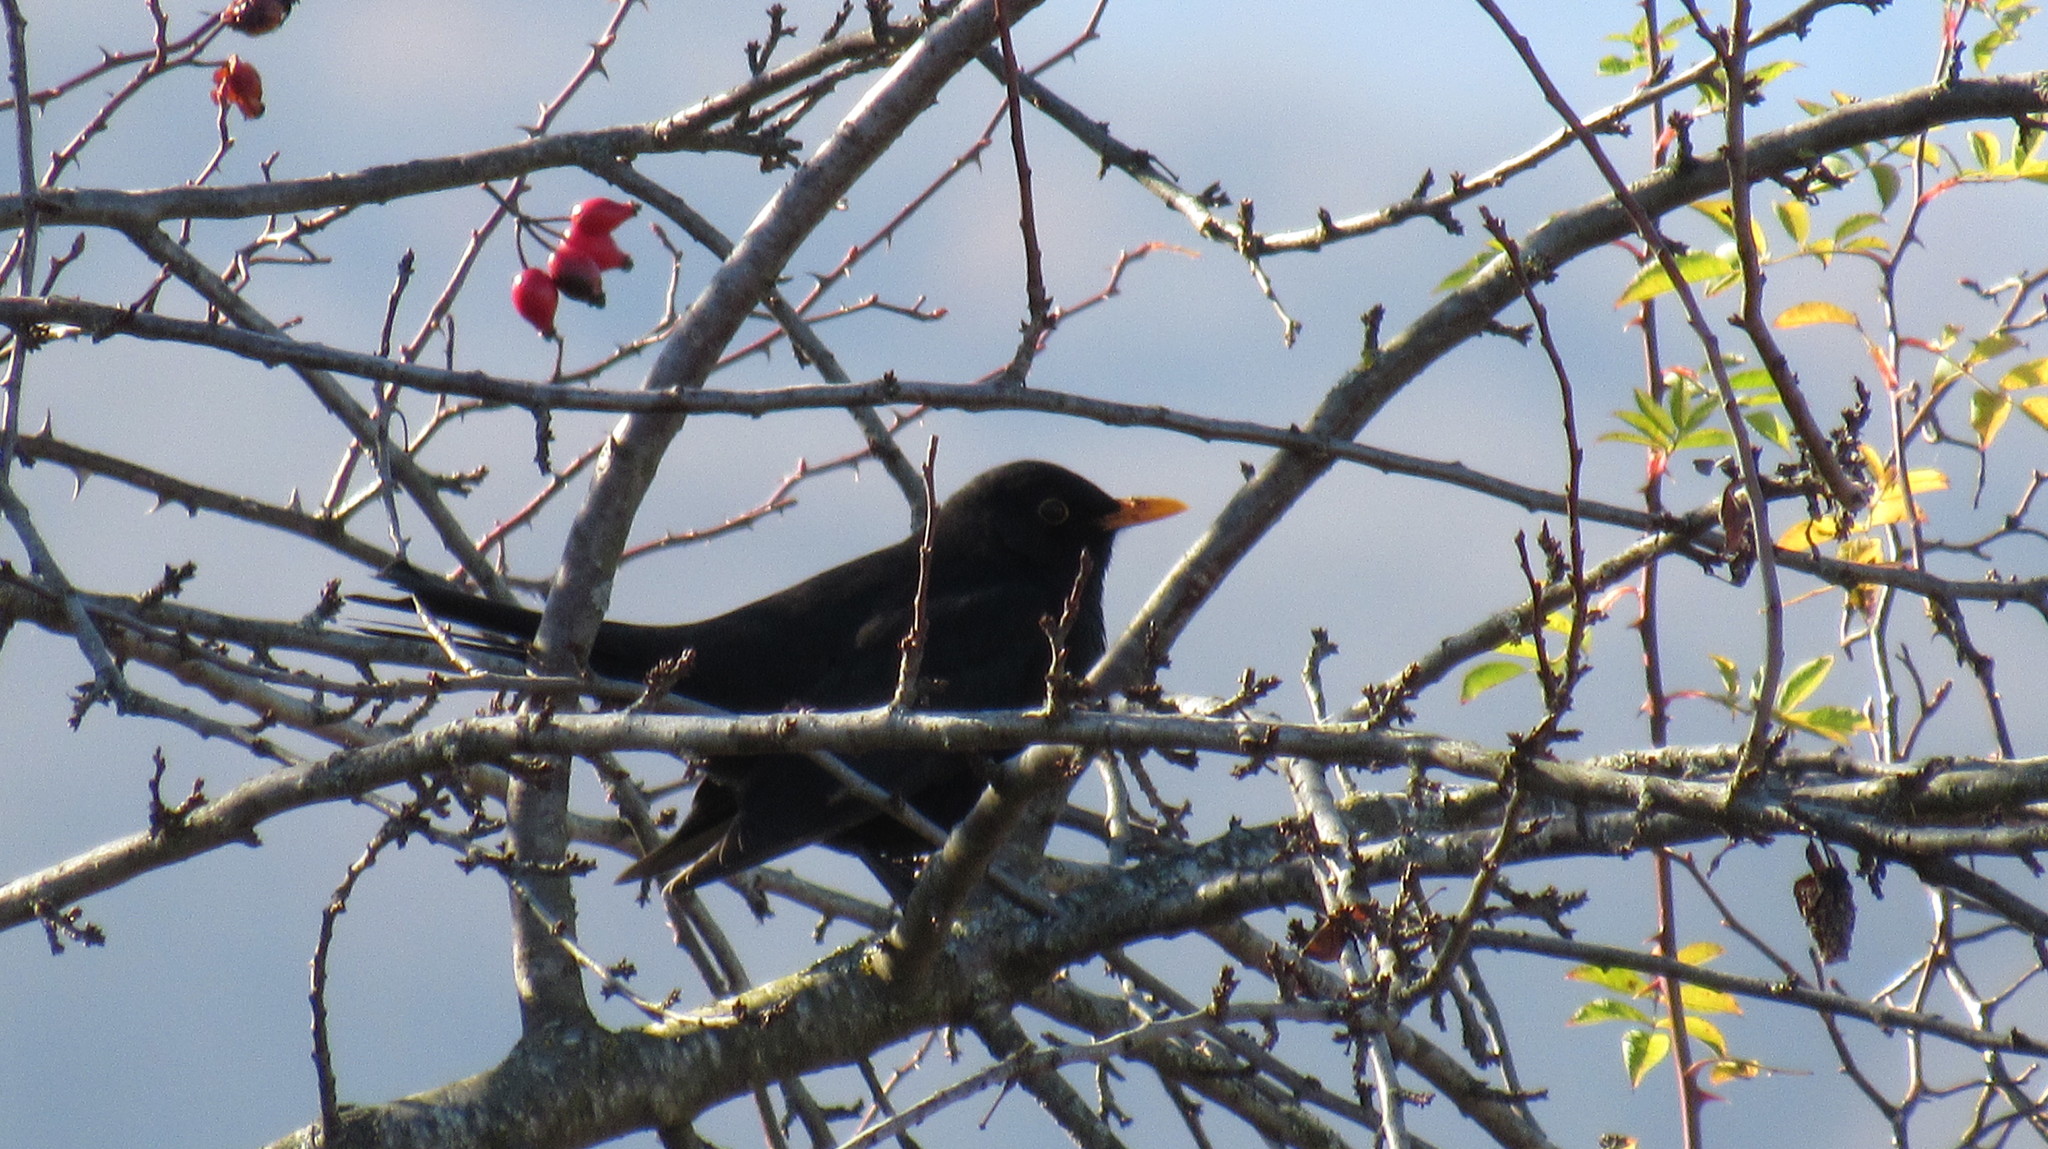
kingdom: Animalia
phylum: Chordata
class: Aves
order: Passeriformes
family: Turdidae
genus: Turdus
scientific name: Turdus merula
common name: Common blackbird
